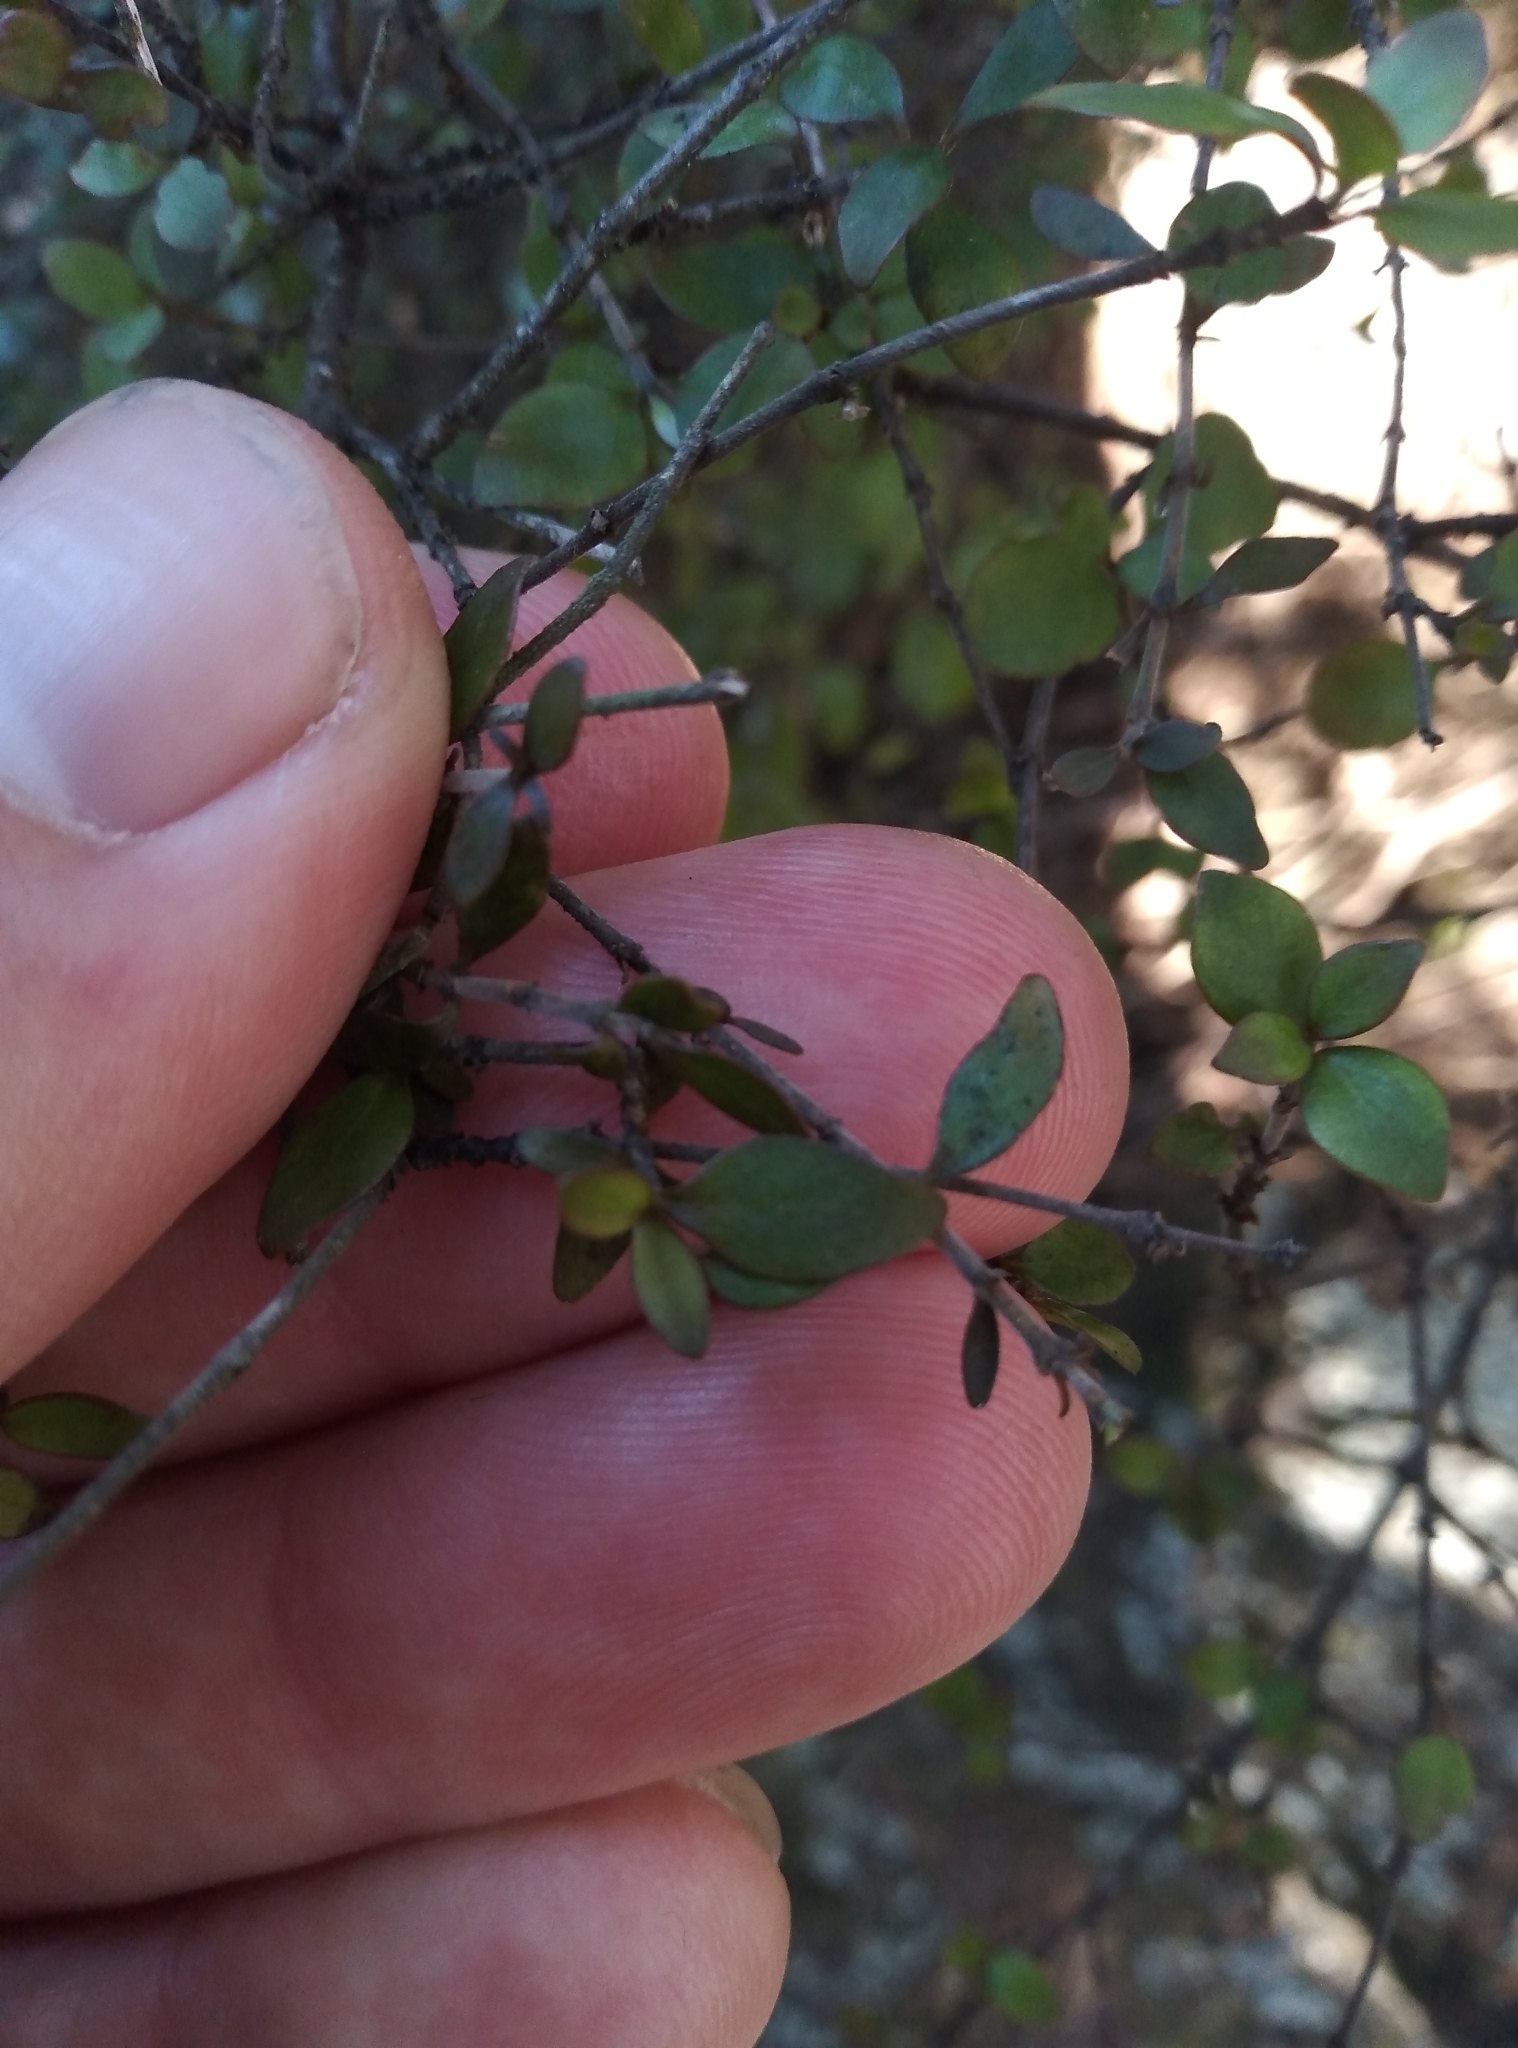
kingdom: Plantae
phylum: Tracheophyta
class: Magnoliopsida
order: Gentianales
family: Rubiaceae
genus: Coprosma
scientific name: Coprosma rhamnoides
